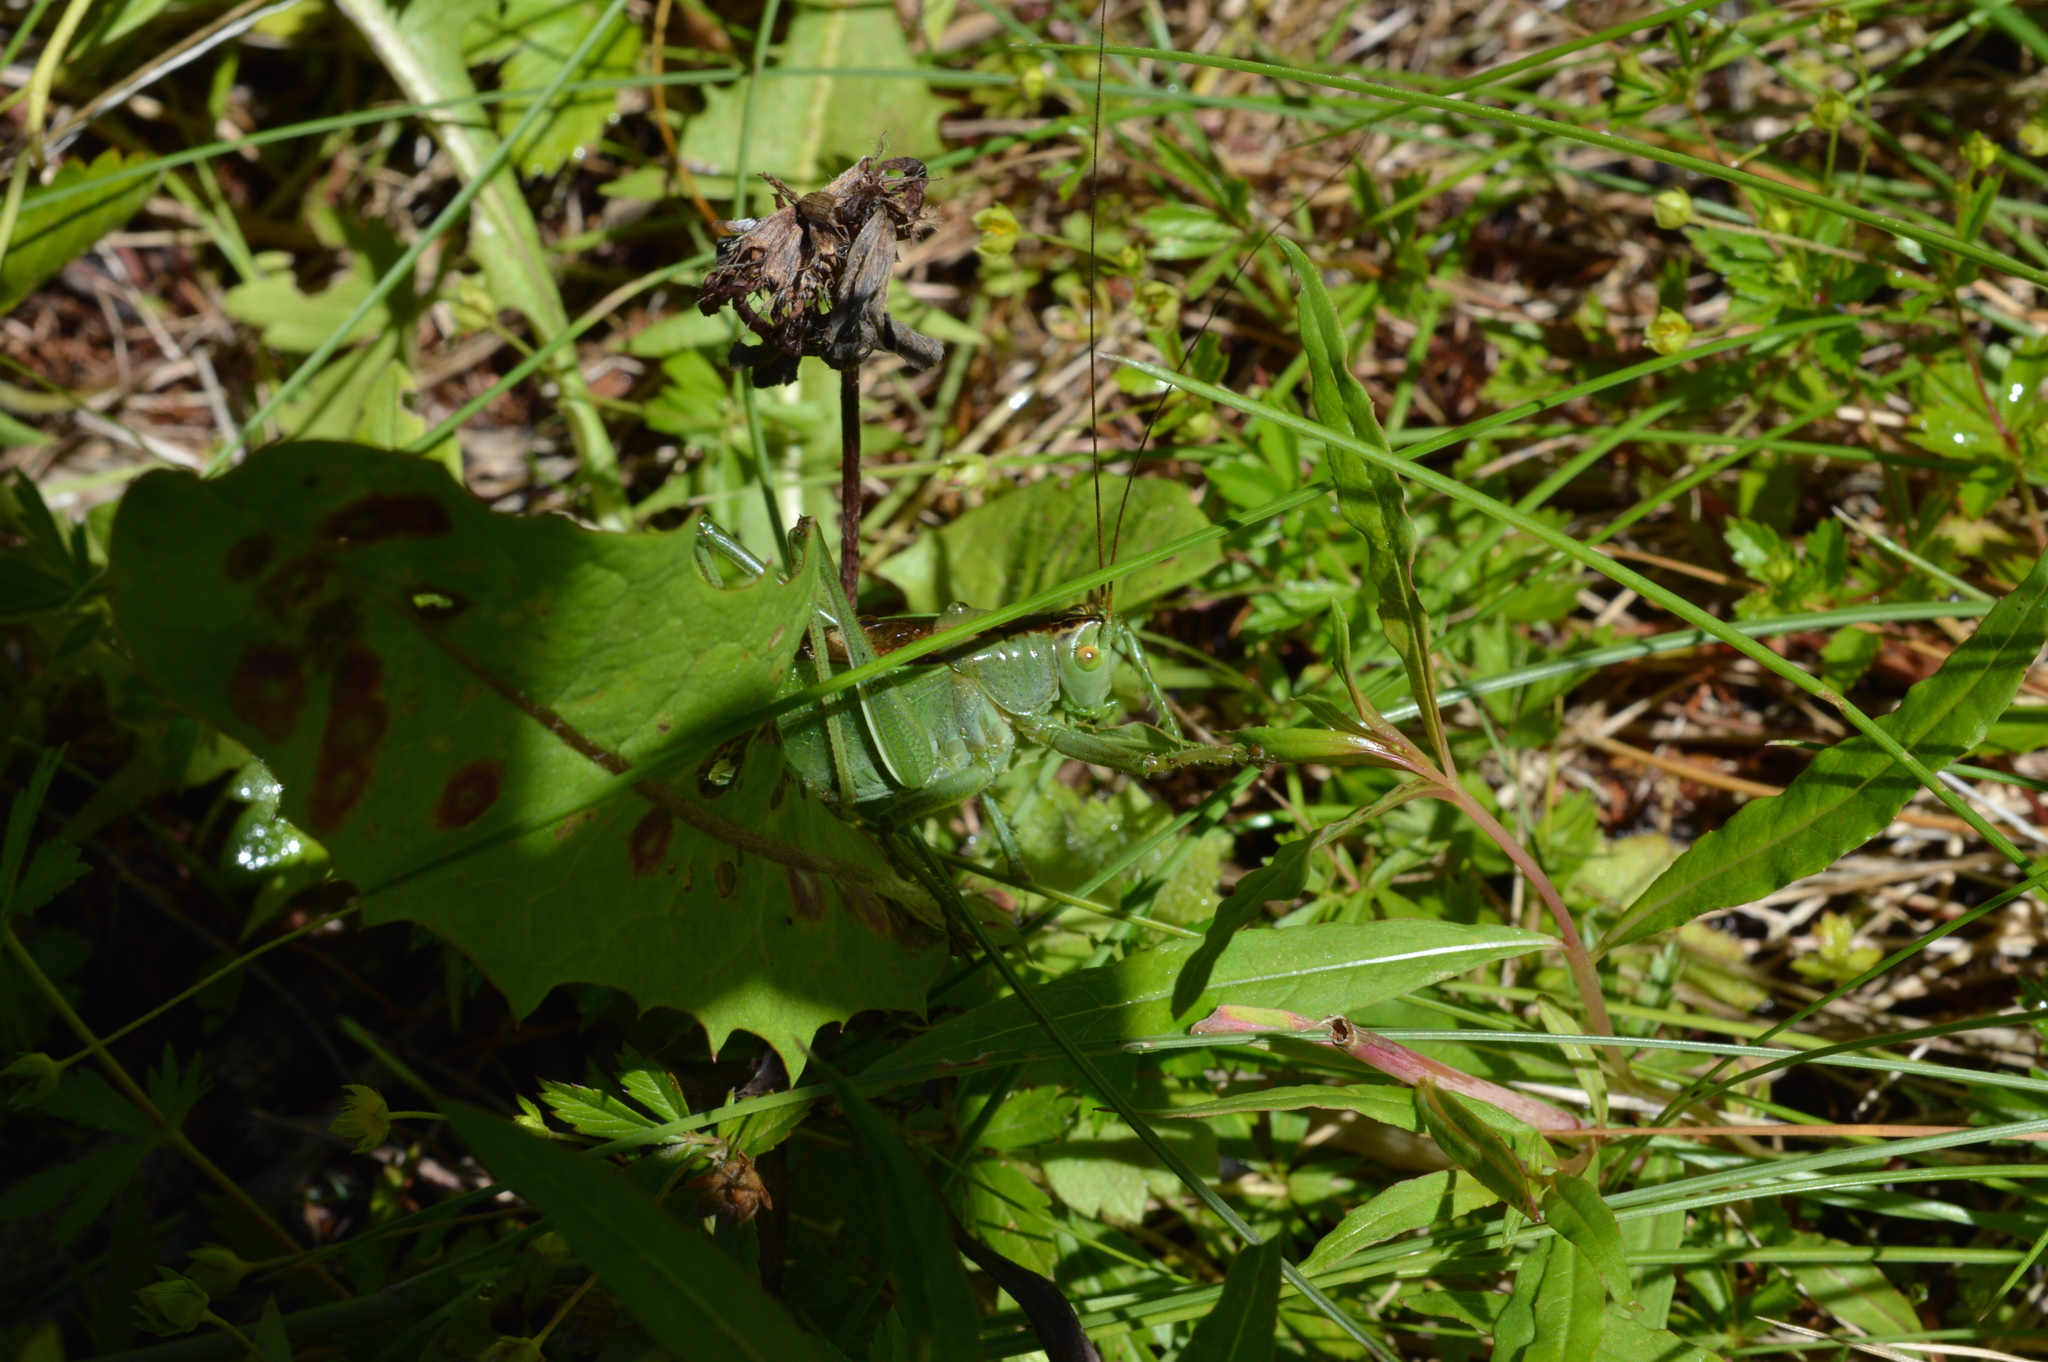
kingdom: Animalia
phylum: Arthropoda
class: Insecta
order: Orthoptera
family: Tettigoniidae
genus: Tettigonia
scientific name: Tettigonia cantans
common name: Upland green bush-cricket
